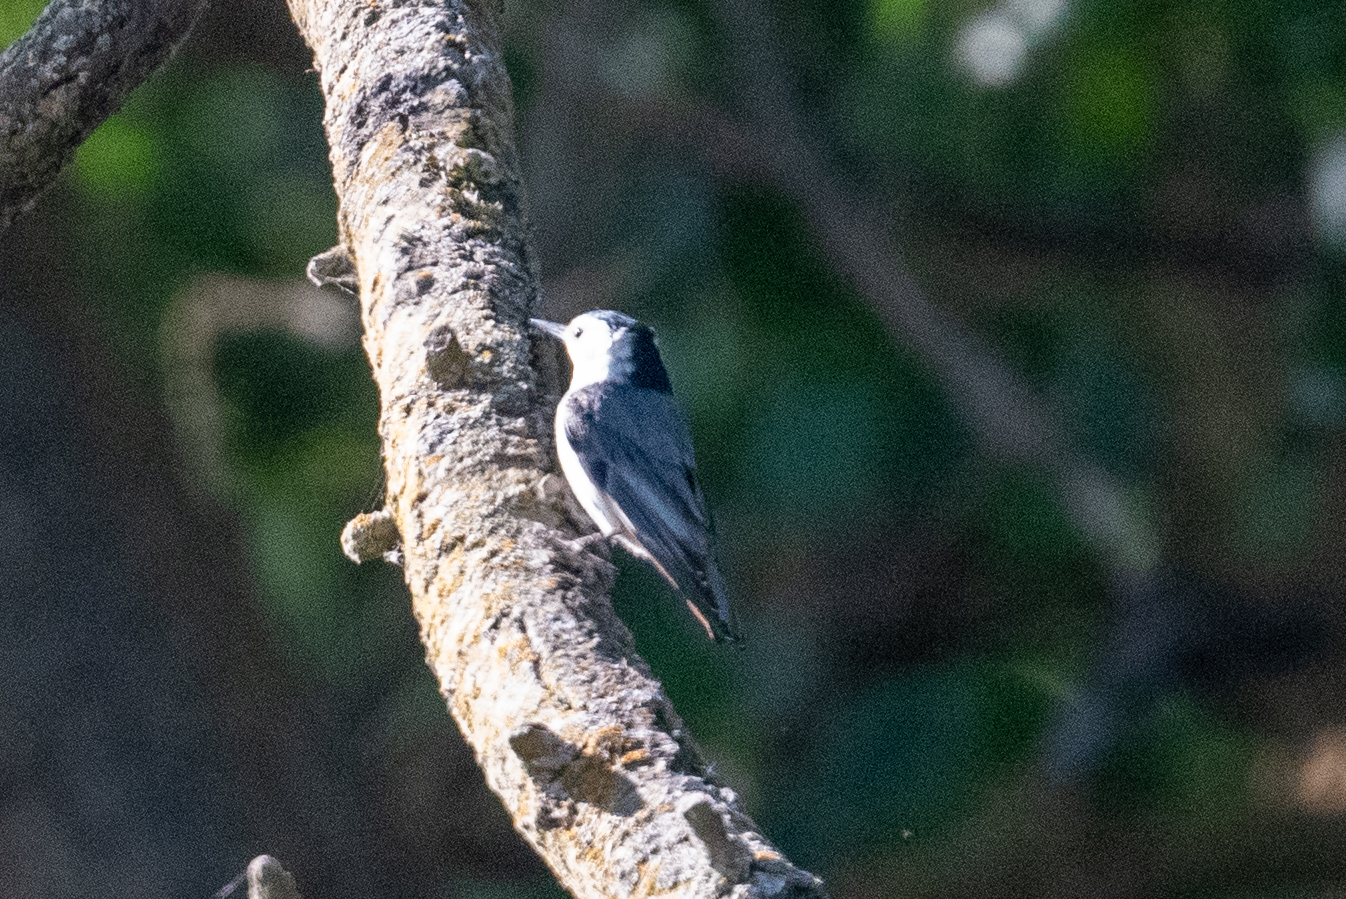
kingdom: Animalia
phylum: Chordata
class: Aves
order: Passeriformes
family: Sittidae
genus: Sitta
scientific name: Sitta carolinensis
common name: White-breasted nuthatch
